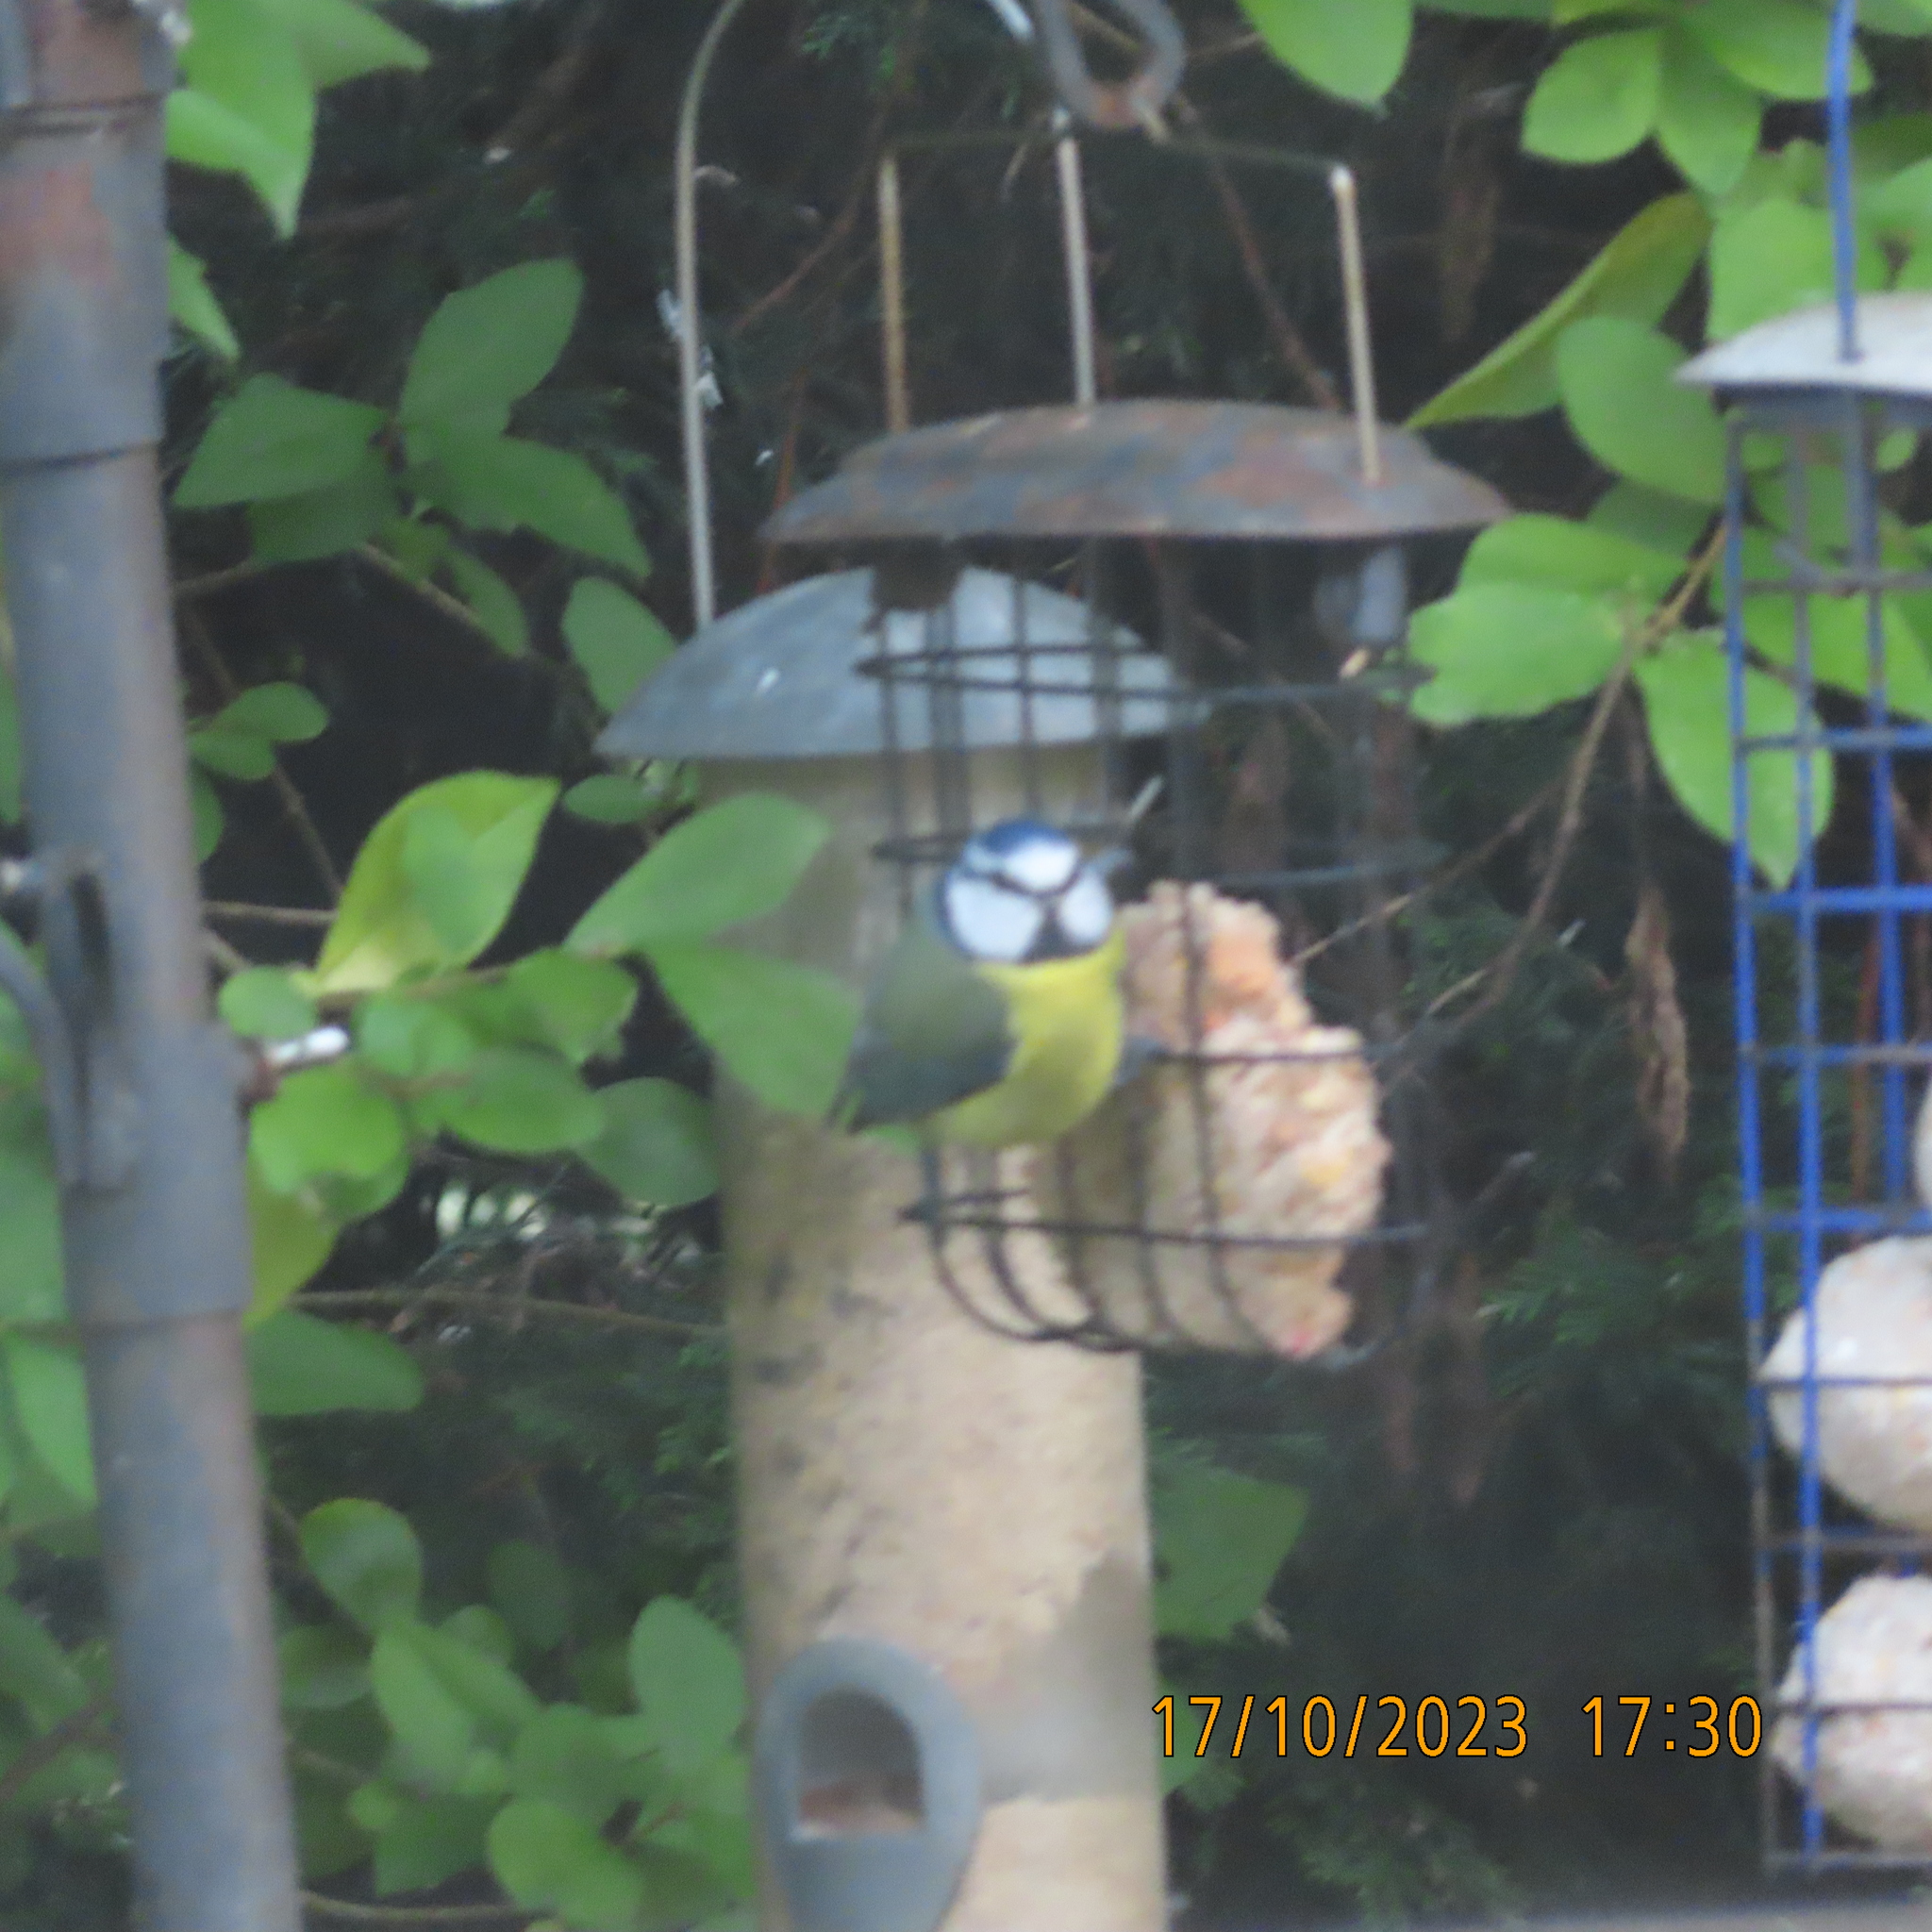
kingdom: Animalia
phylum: Chordata
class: Aves
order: Passeriformes
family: Paridae
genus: Cyanistes
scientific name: Cyanistes caeruleus
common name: Eurasian blue tit
